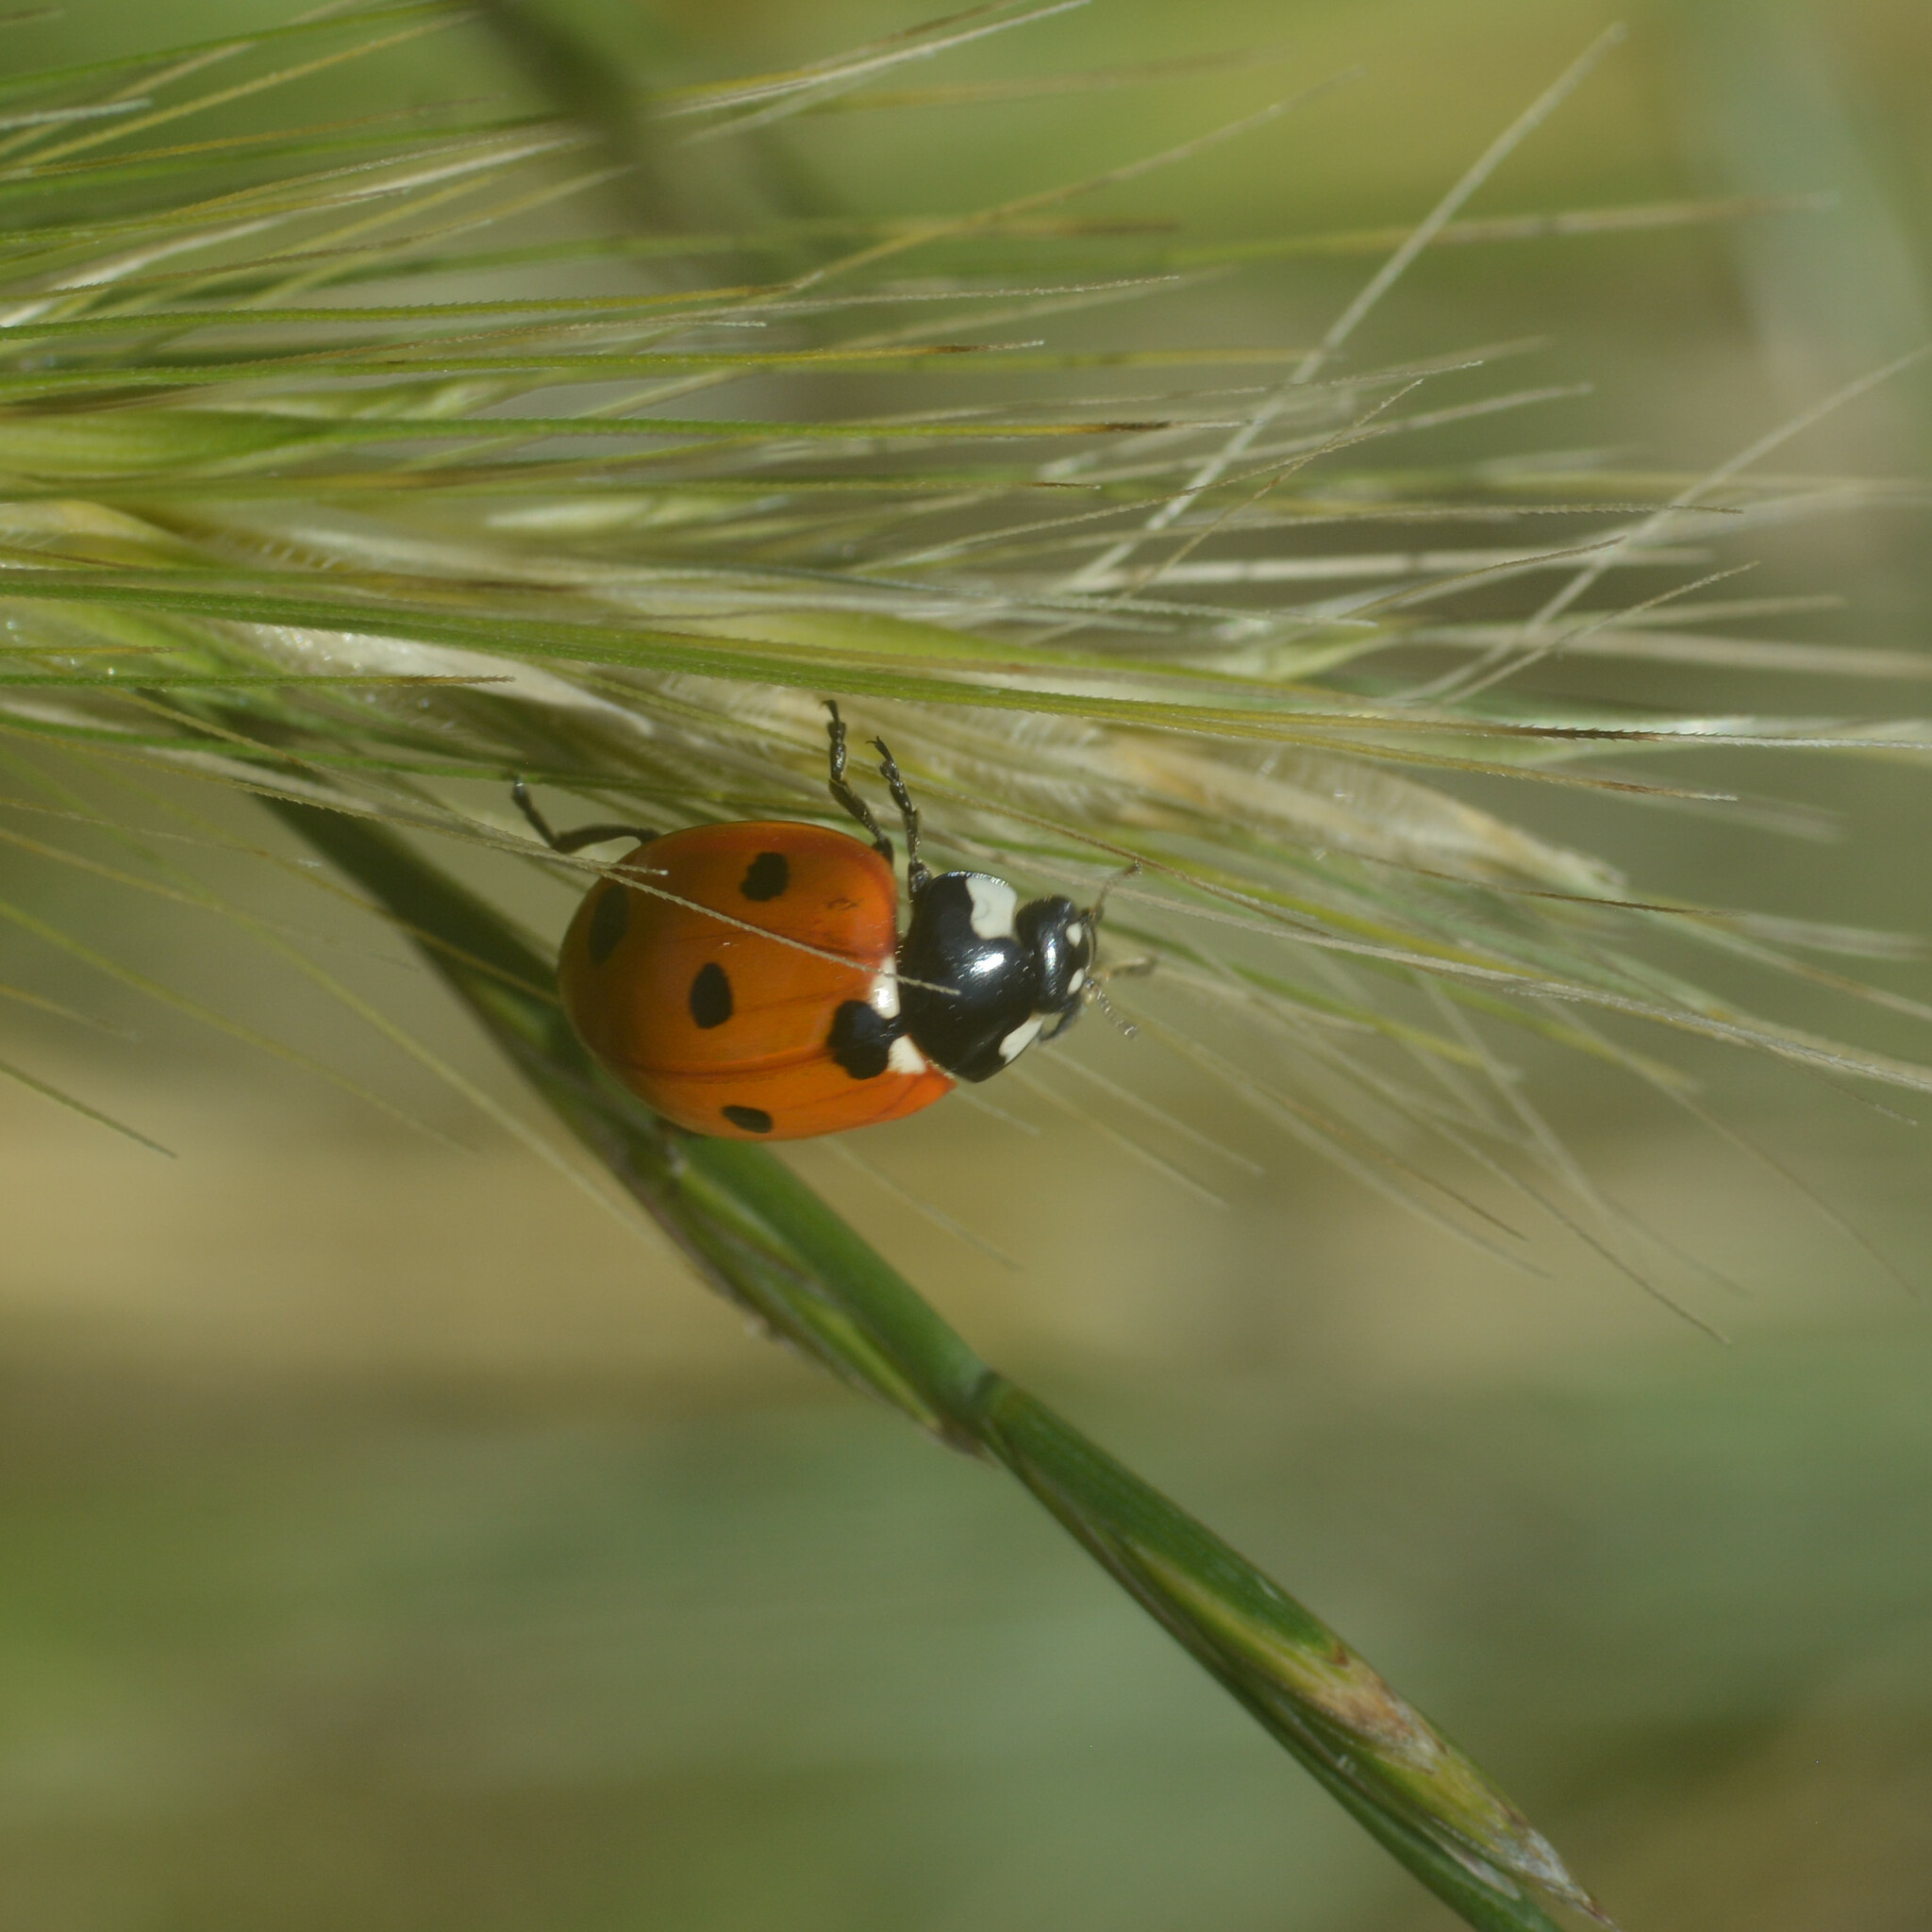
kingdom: Animalia
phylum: Arthropoda
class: Insecta
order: Coleoptera
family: Coccinellidae
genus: Coccinella
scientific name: Coccinella septempunctata
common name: Sevenspotted lady beetle
